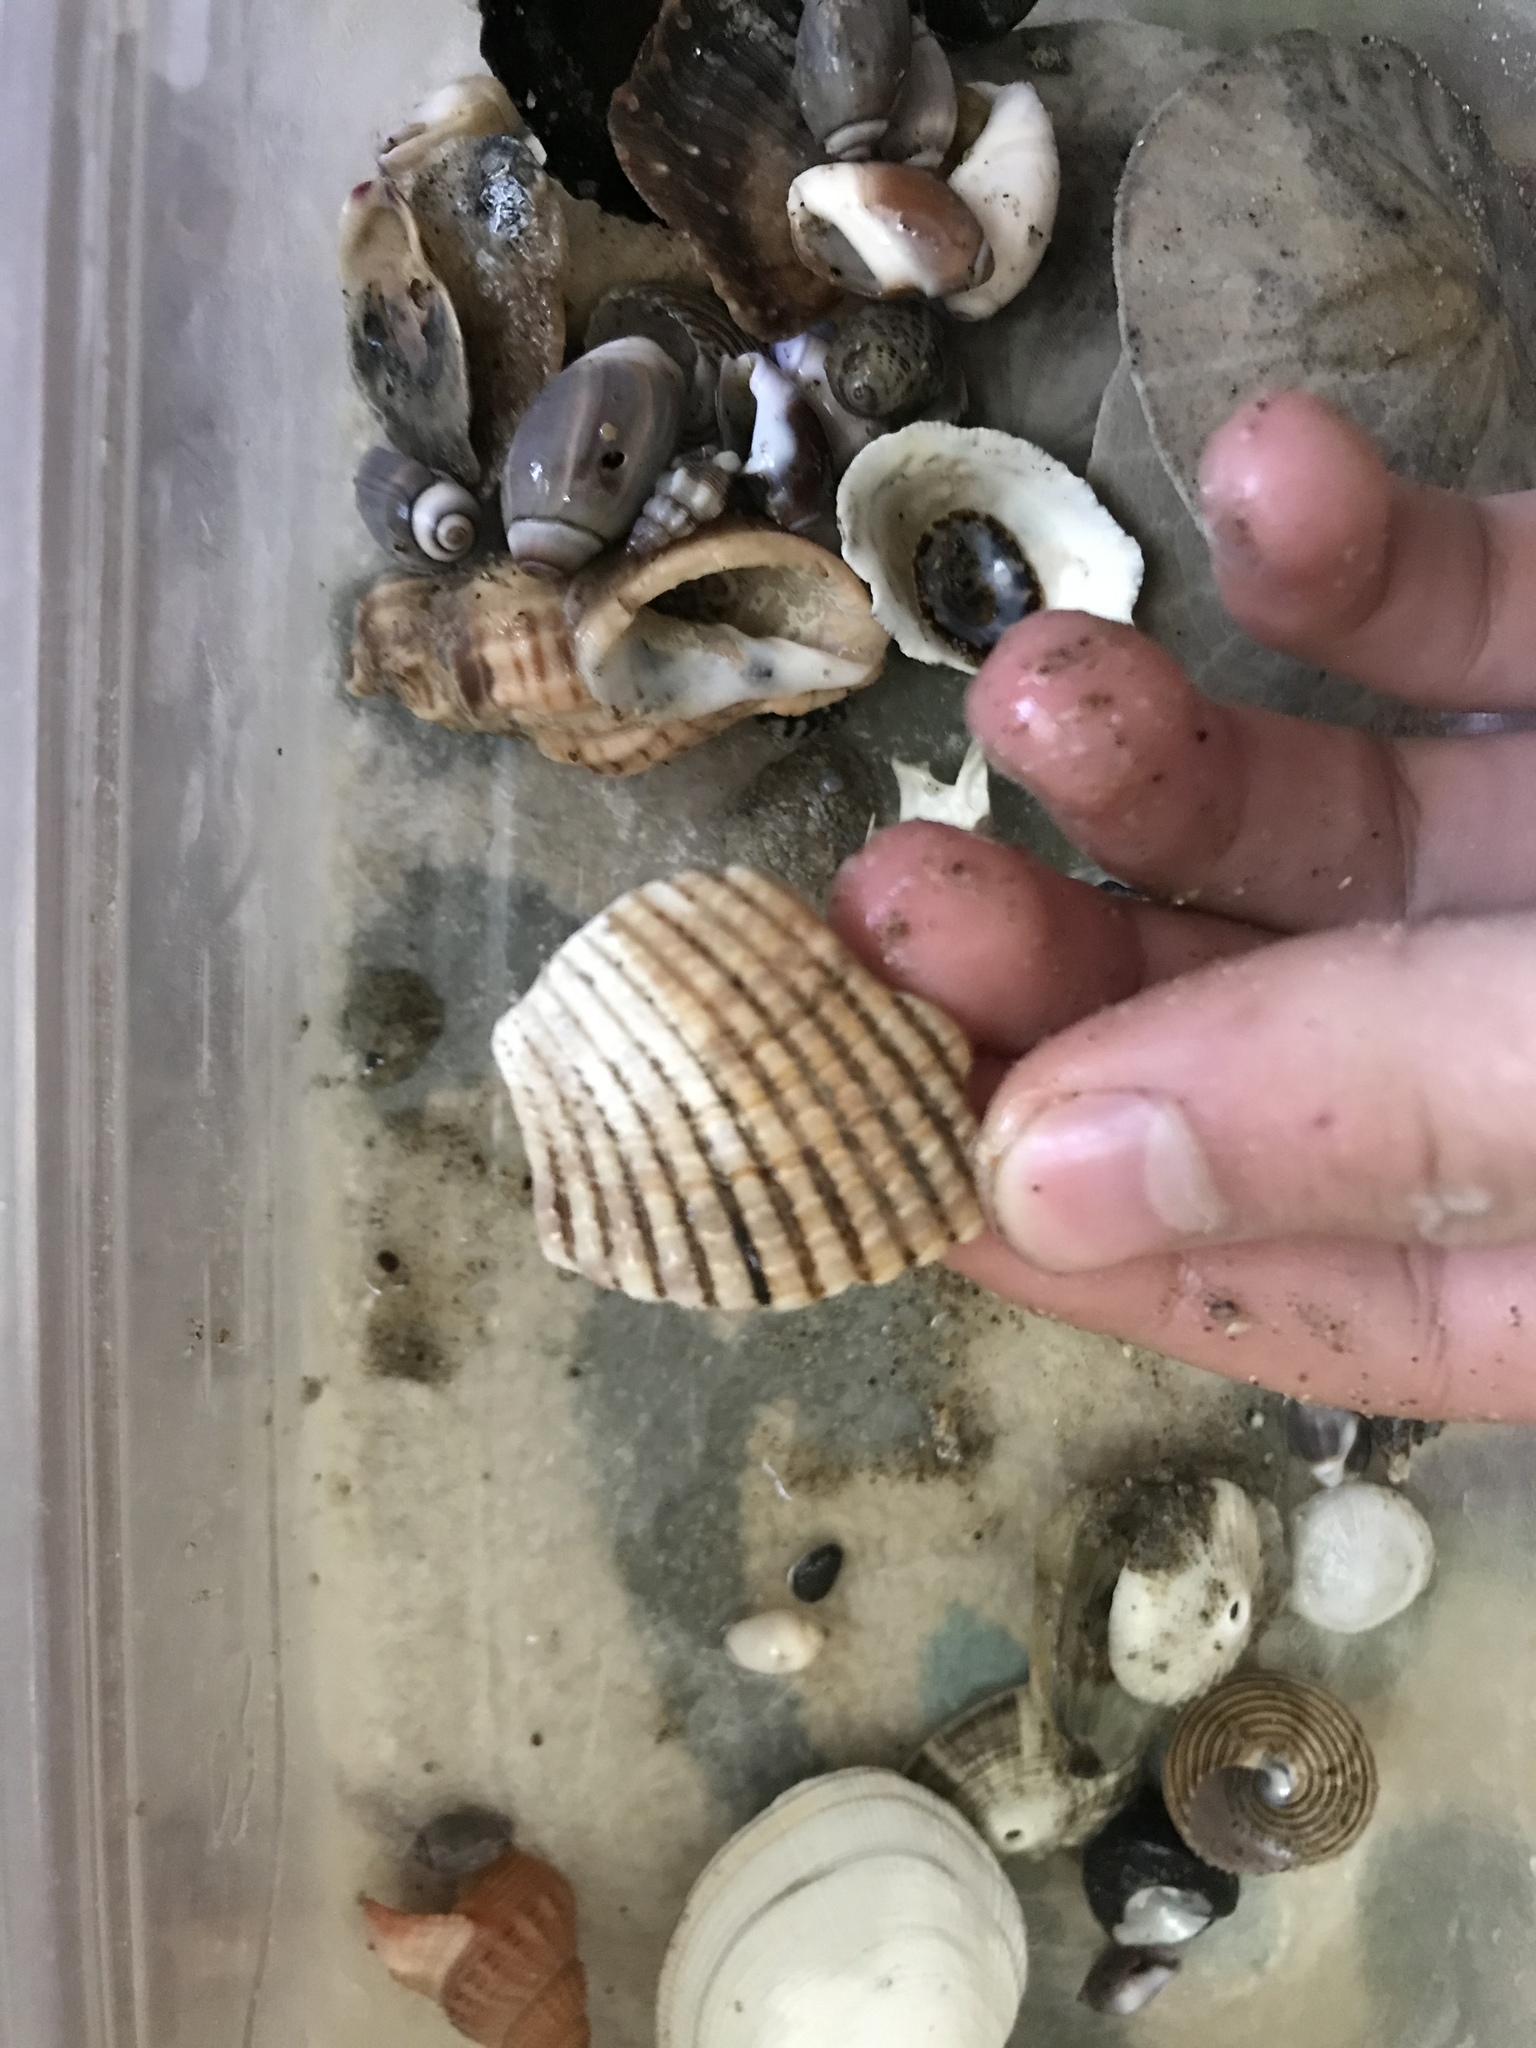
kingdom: Animalia
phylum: Mollusca
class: Bivalvia
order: Cardiida
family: Cardiidae
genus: Clinocardium
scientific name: Clinocardium nuttallii
